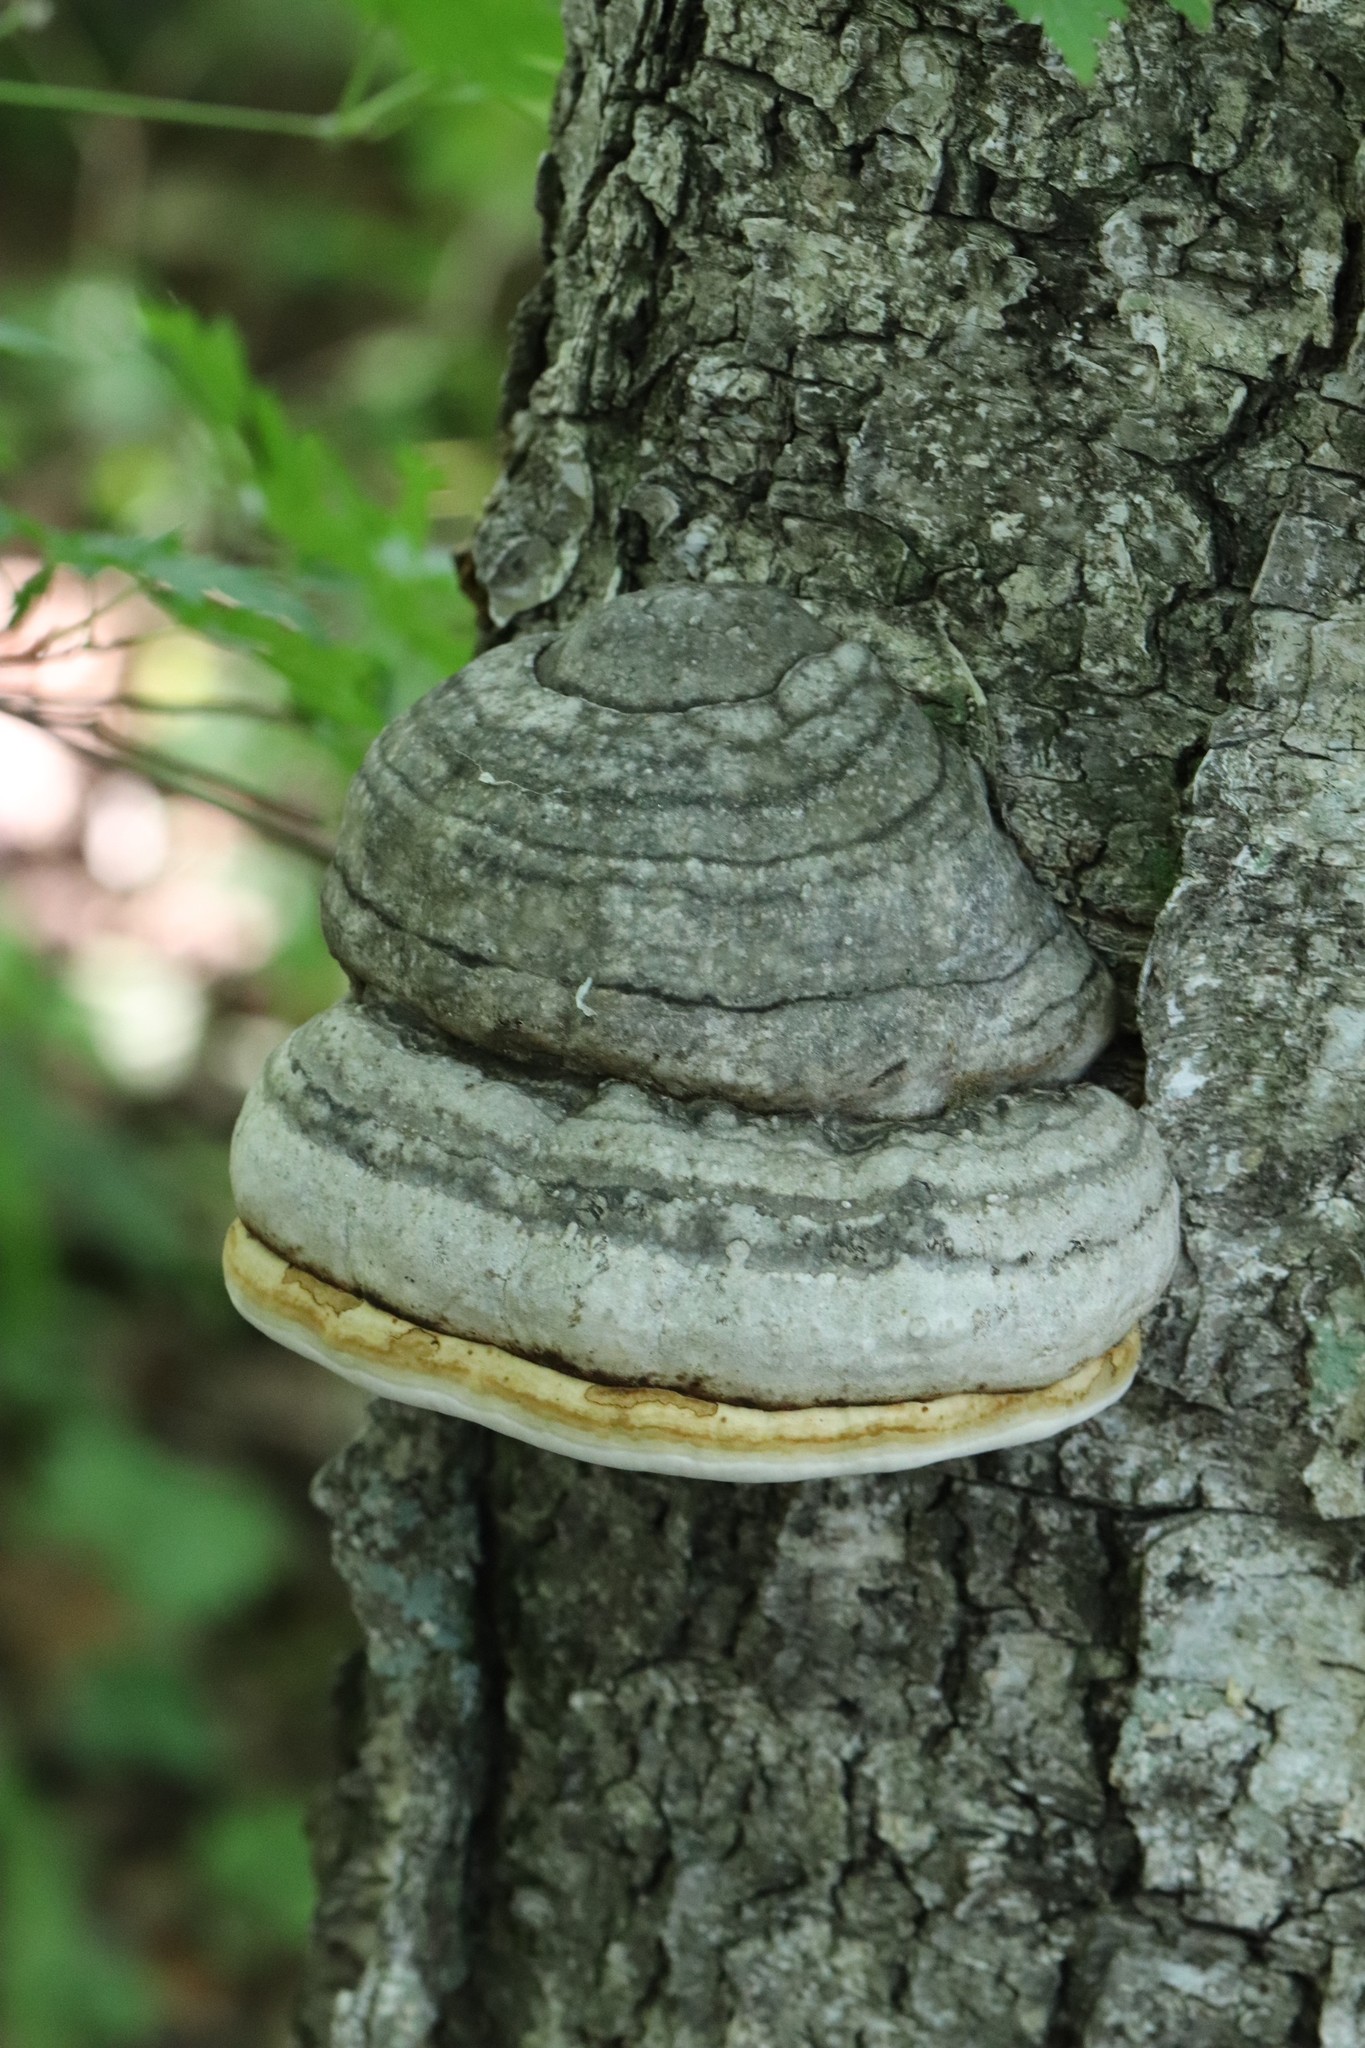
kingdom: Fungi
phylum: Basidiomycota
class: Agaricomycetes
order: Polyporales
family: Polyporaceae
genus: Fomes
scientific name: Fomes fomentarius
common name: Hoof fungus
